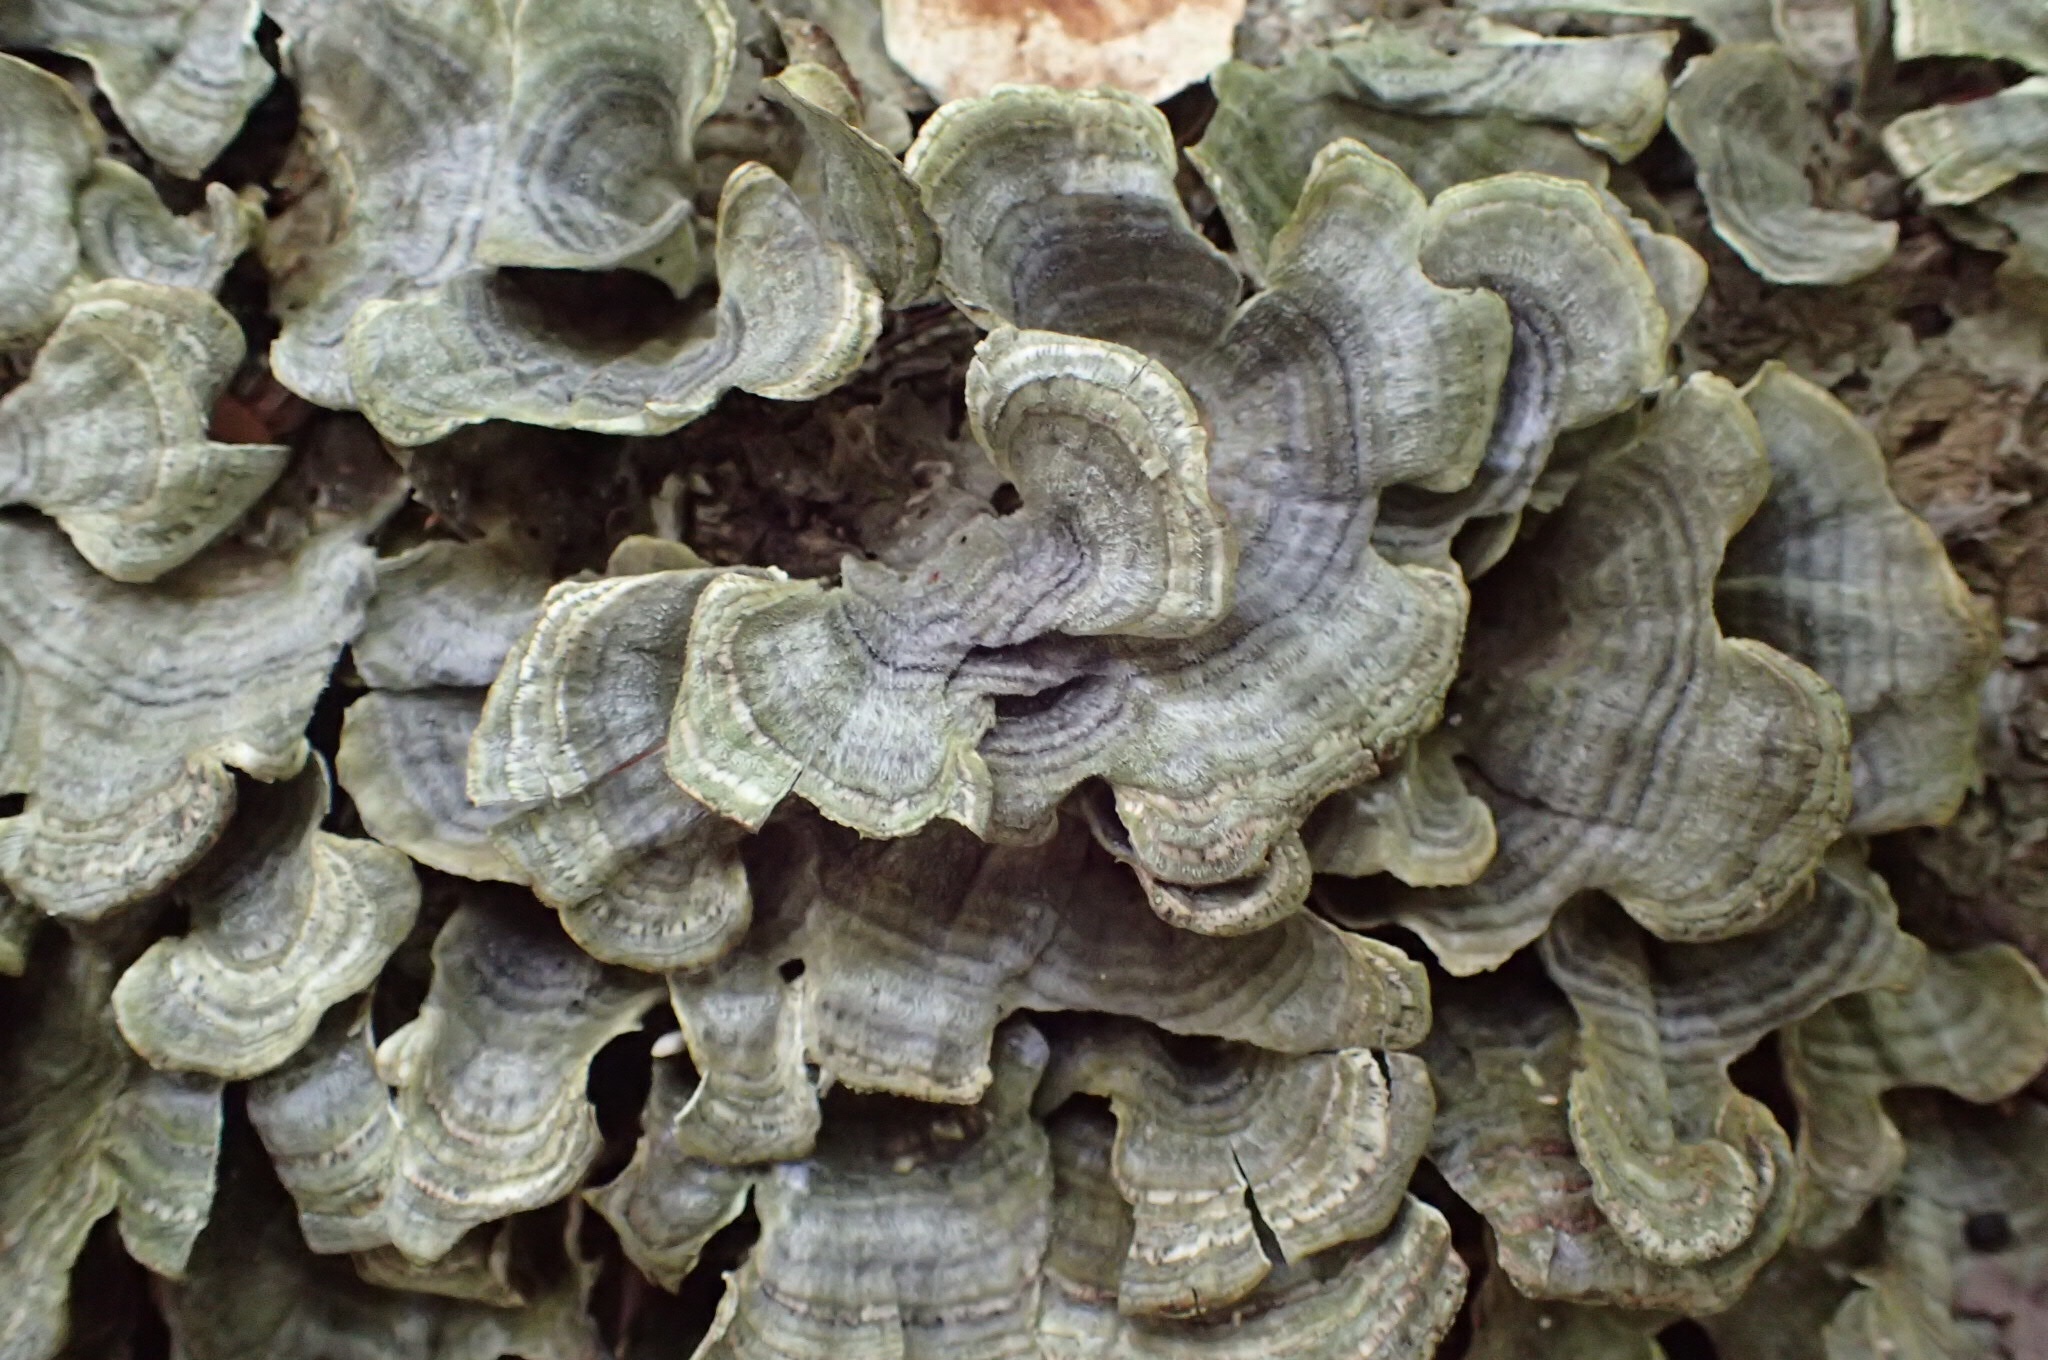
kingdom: Fungi
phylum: Basidiomycota
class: Agaricomycetes
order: Polyporales
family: Polyporaceae
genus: Trametes
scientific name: Trametes versicolor
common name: Turkeytail
